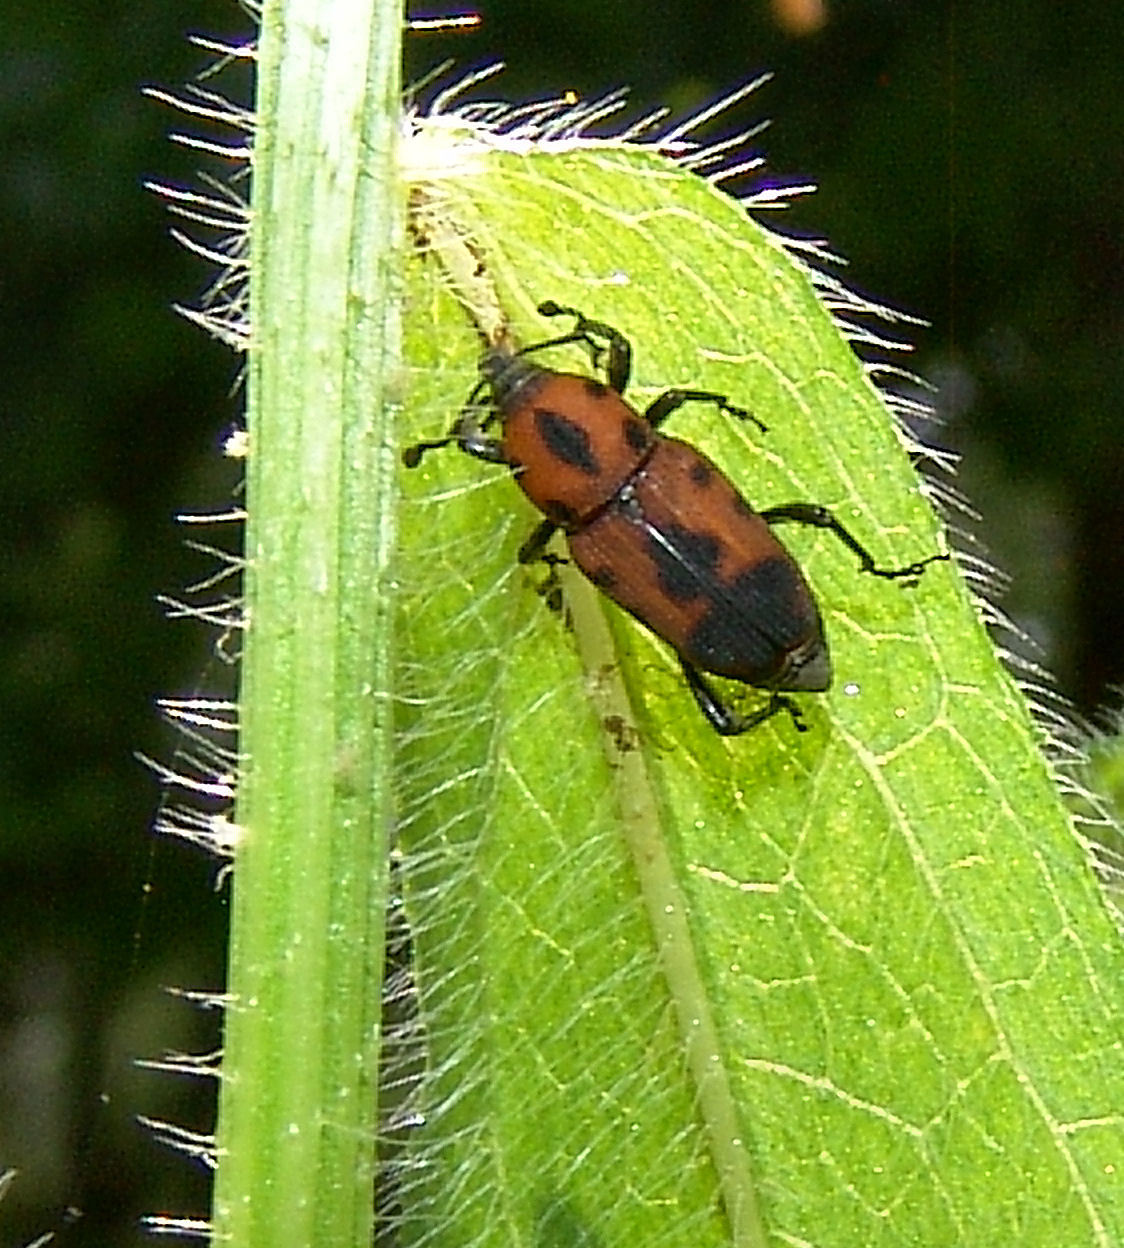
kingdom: Animalia
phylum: Arthropoda
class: Insecta
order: Coleoptera
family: Dryophthoridae
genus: Rhodobaenus
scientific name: Rhodobaenus quinquepunctatus
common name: Cocklebur weevil
